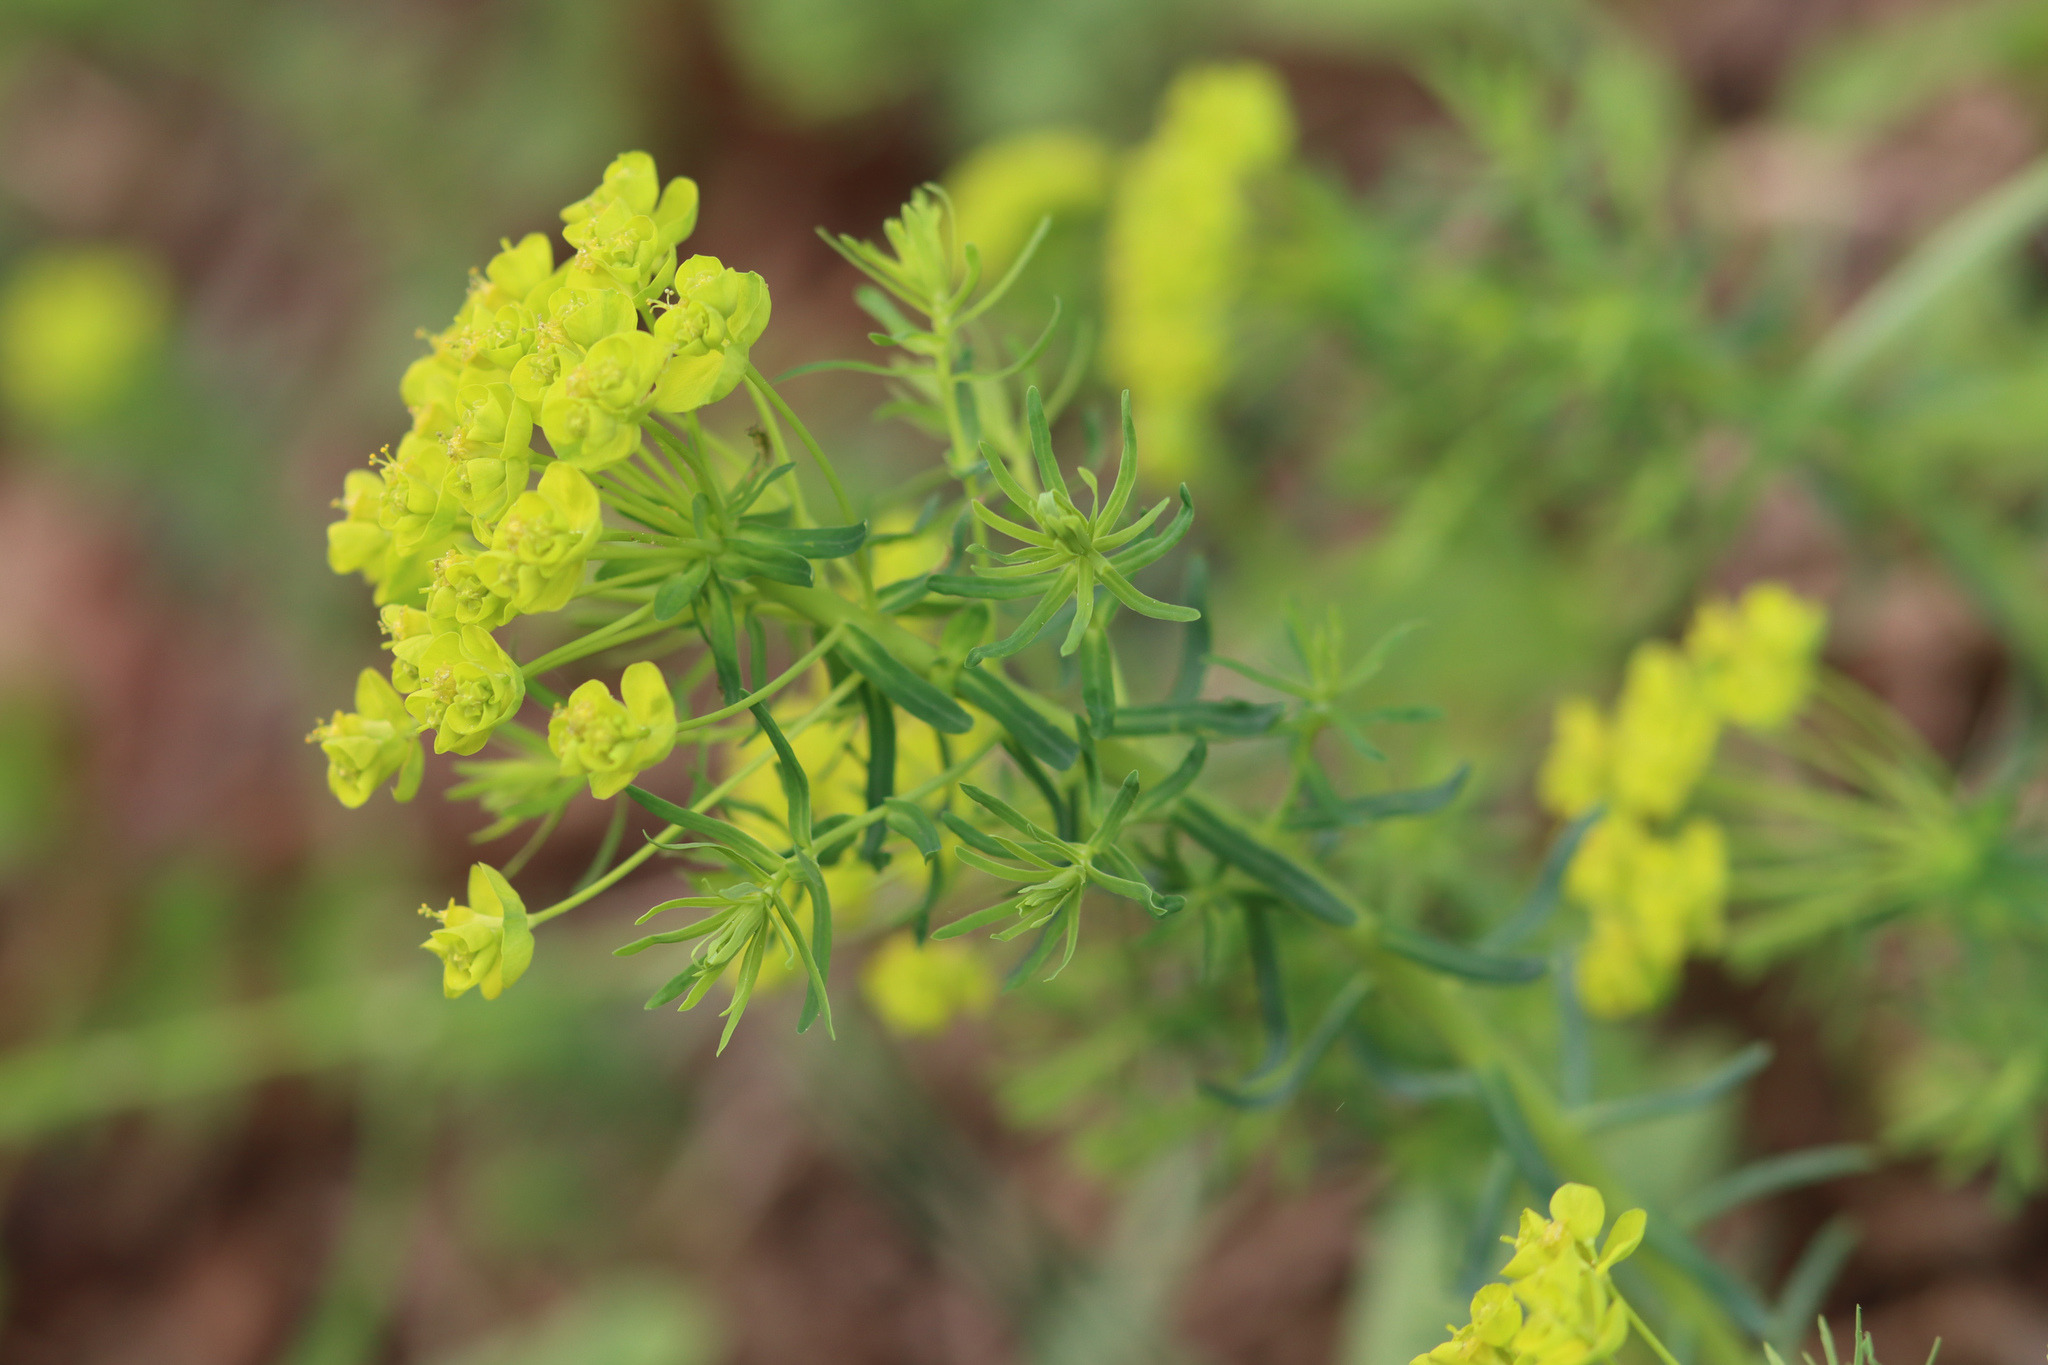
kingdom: Plantae
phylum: Tracheophyta
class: Magnoliopsida
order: Malpighiales
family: Euphorbiaceae
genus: Euphorbia
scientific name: Euphorbia cyparissias
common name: Cypress spurge
